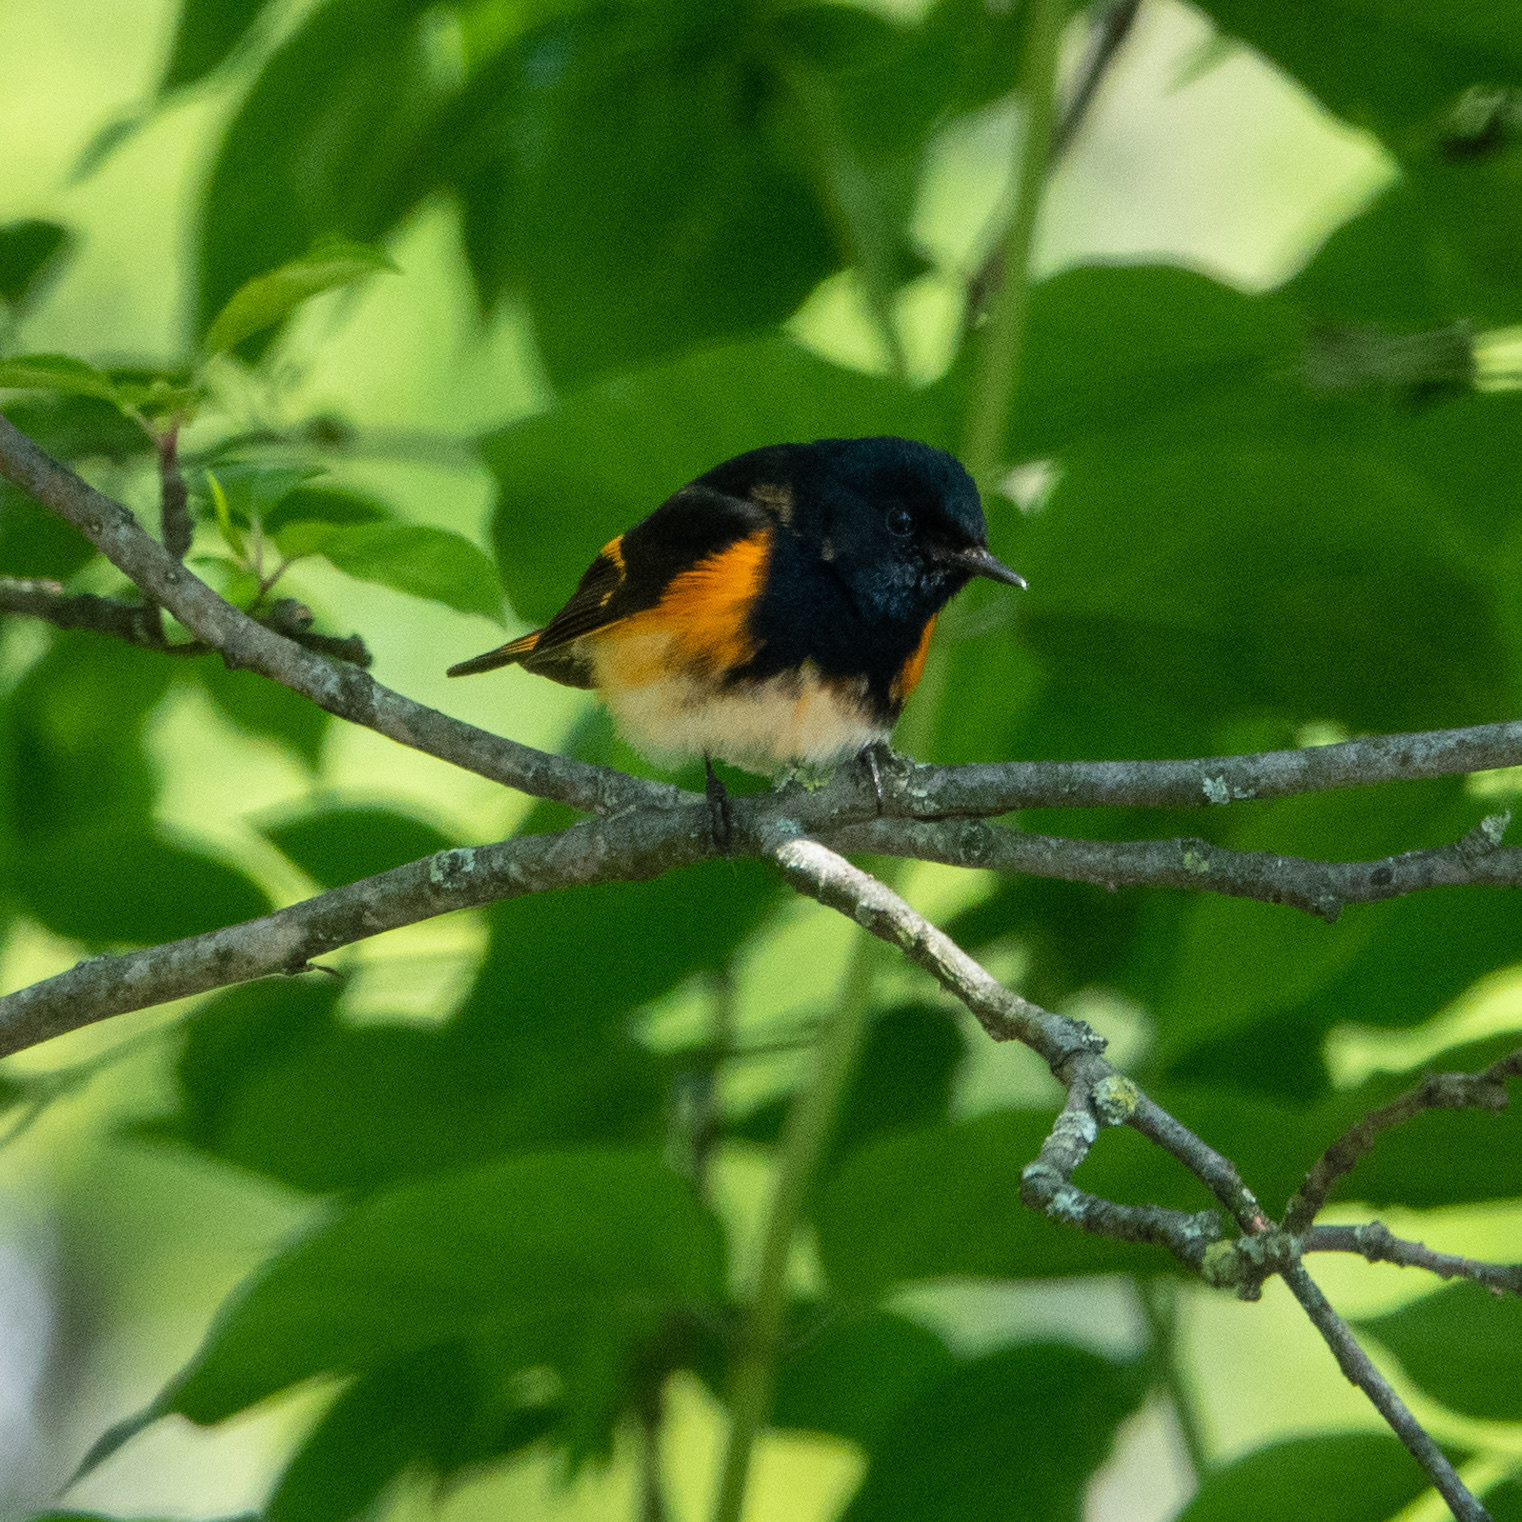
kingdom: Animalia
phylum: Chordata
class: Aves
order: Passeriformes
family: Parulidae
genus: Setophaga
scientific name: Setophaga ruticilla
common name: American redstart
